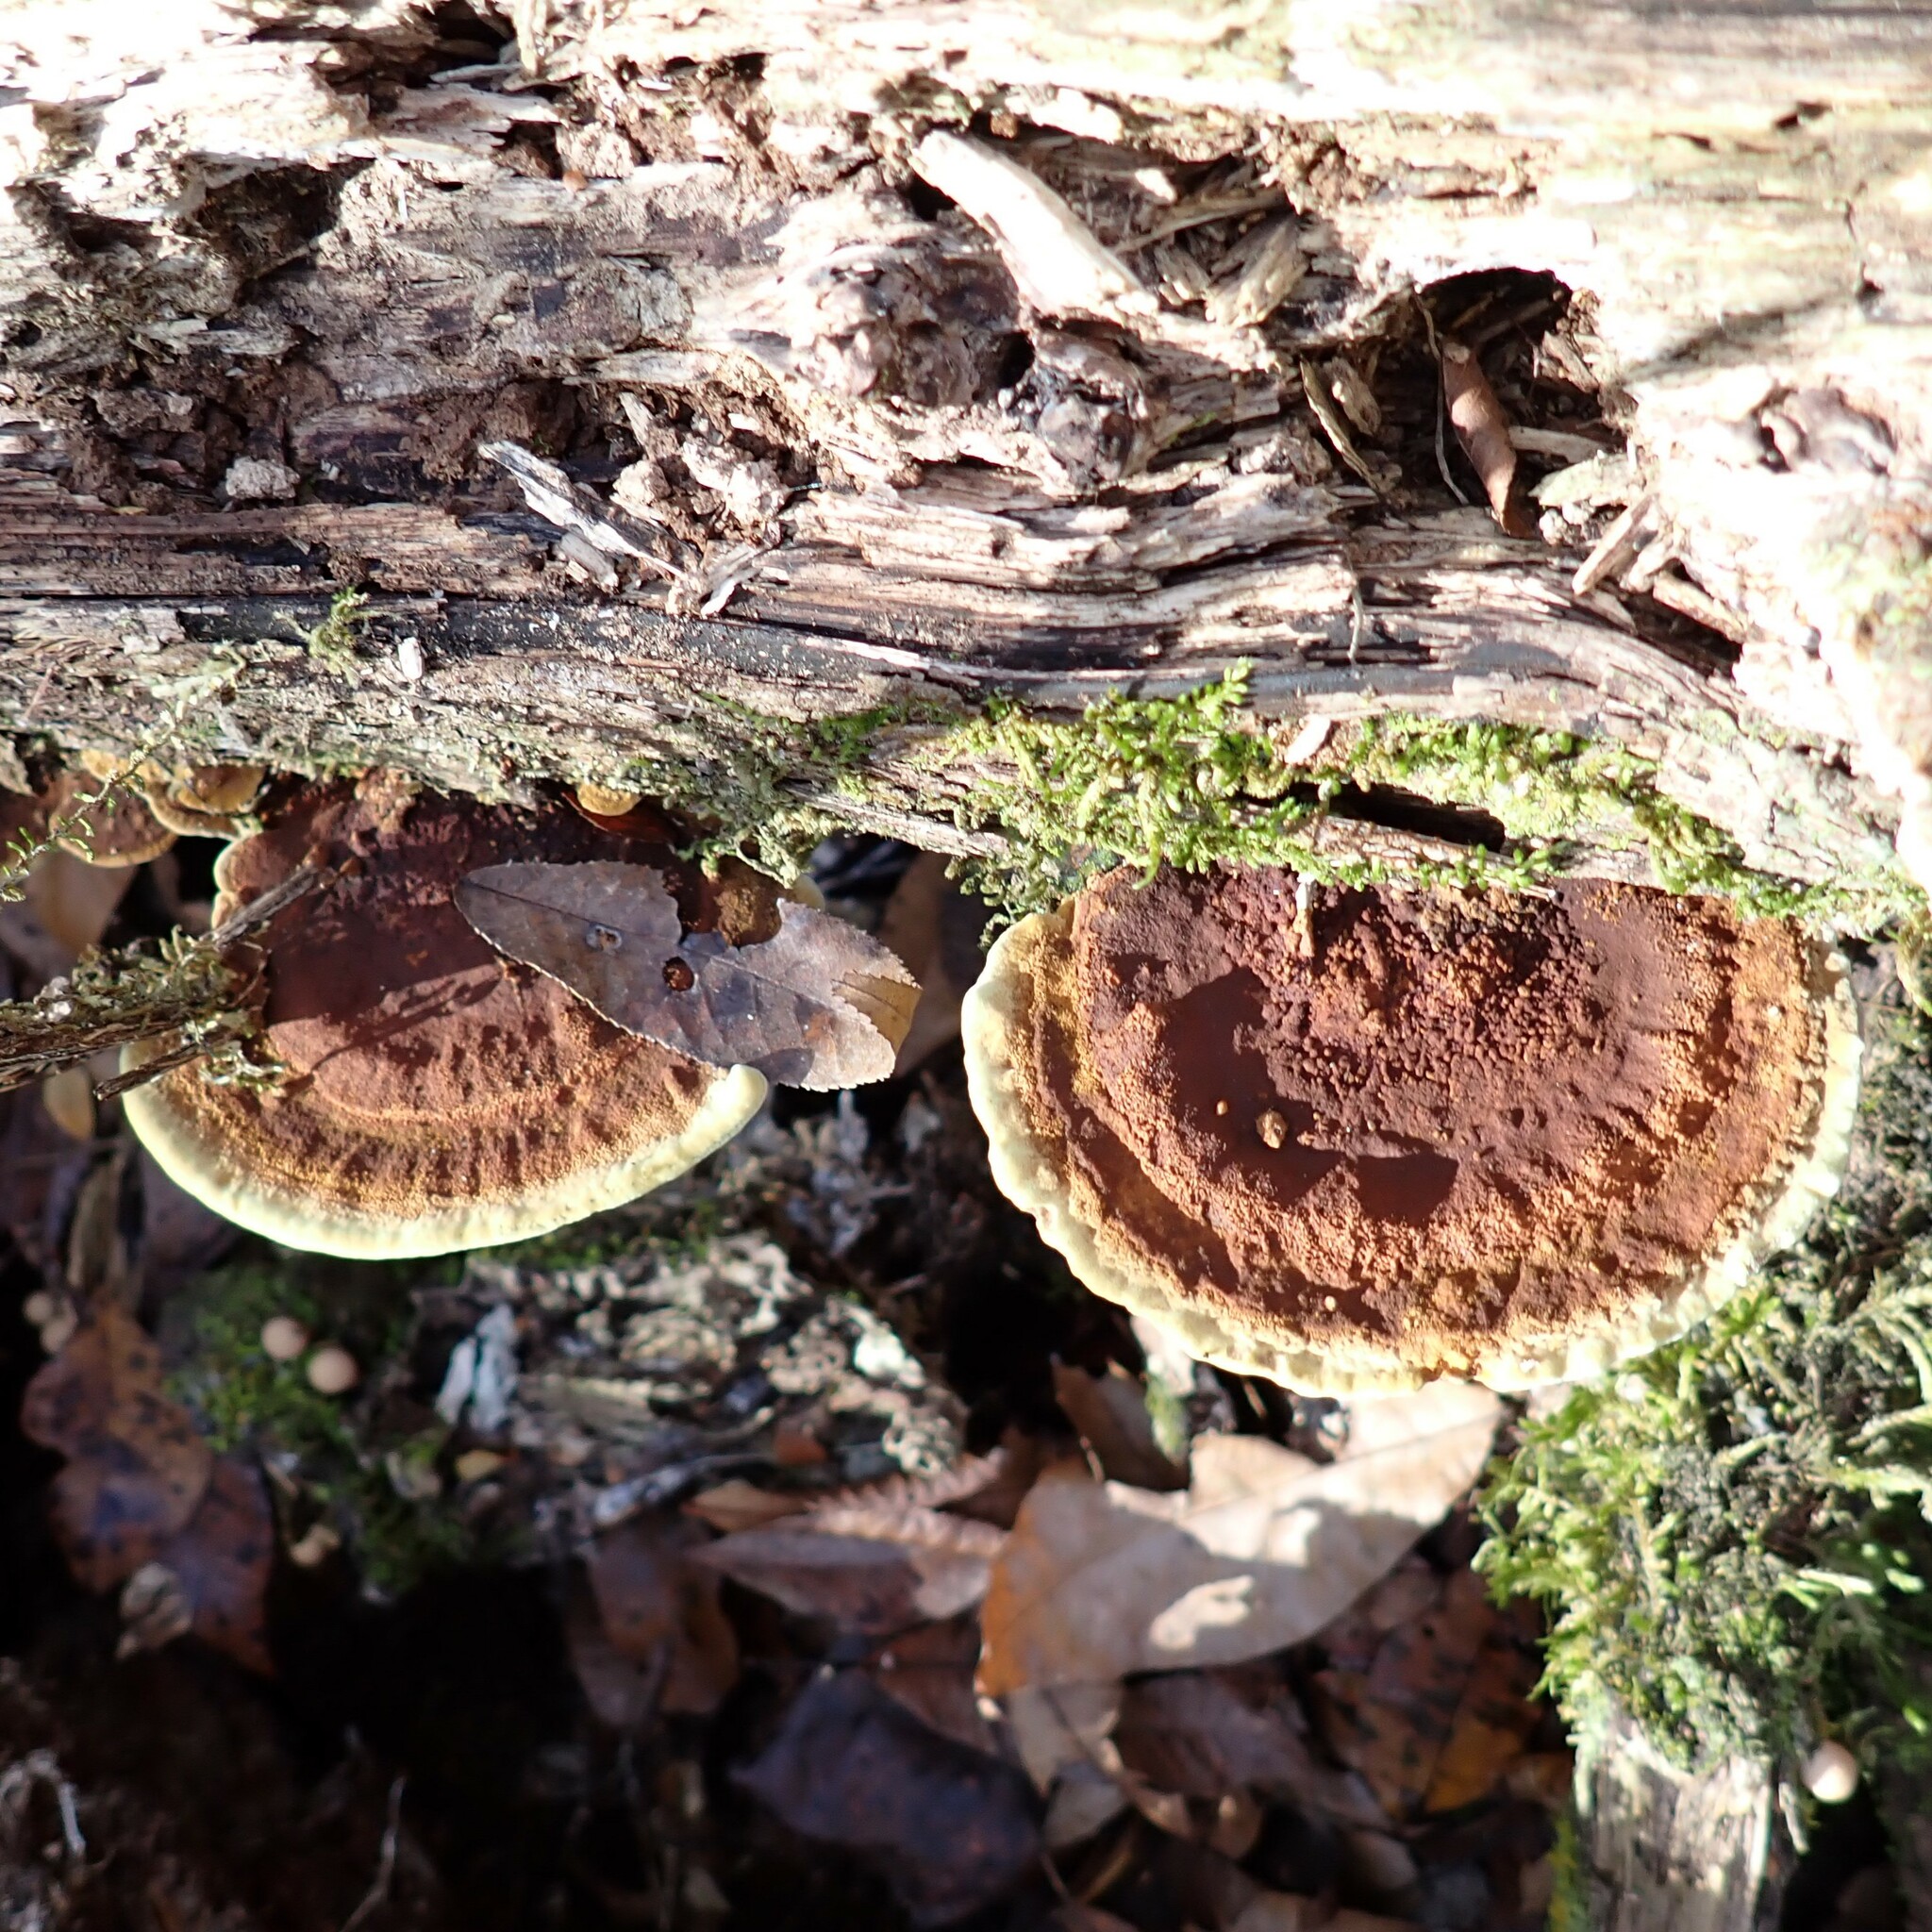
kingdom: Fungi
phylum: Basidiomycota
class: Agaricomycetes
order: Hymenochaetales
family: Hymenochaetaceae
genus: Phellinus
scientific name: Phellinus gilvus
